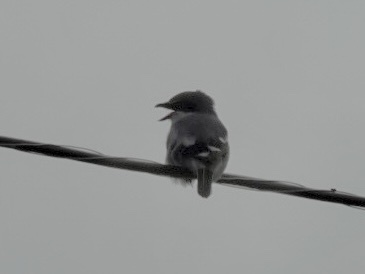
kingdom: Animalia
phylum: Chordata
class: Aves
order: Passeriformes
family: Laniidae
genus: Lanius
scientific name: Lanius ludovicianus
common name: Loggerhead shrike
